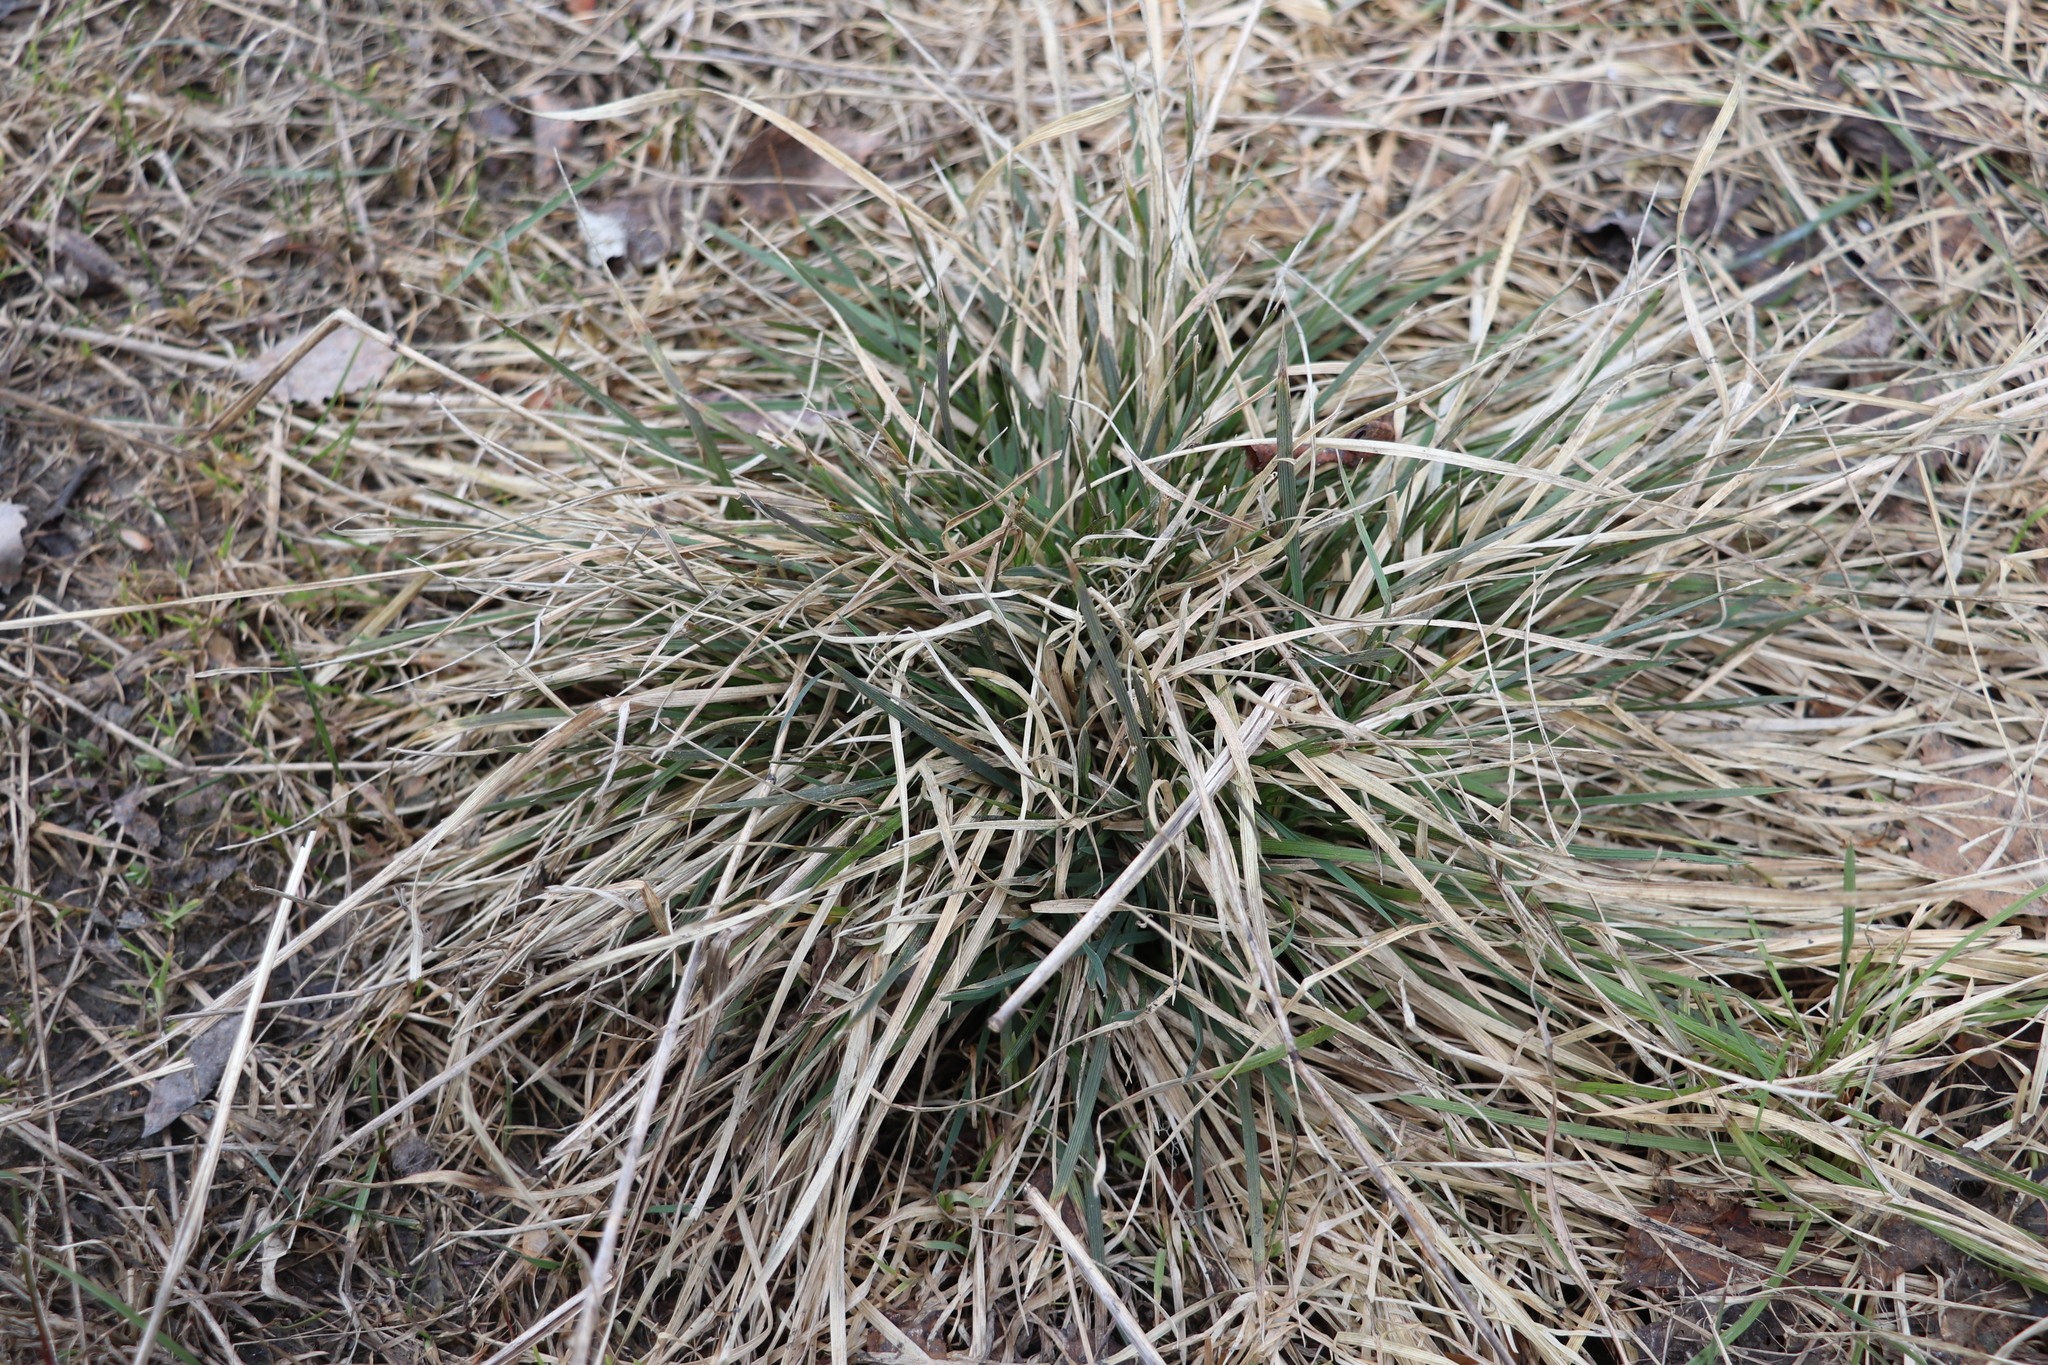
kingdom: Plantae
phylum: Tracheophyta
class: Liliopsida
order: Poales
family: Poaceae
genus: Deschampsia
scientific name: Deschampsia cespitosa
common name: Tufted hair-grass
